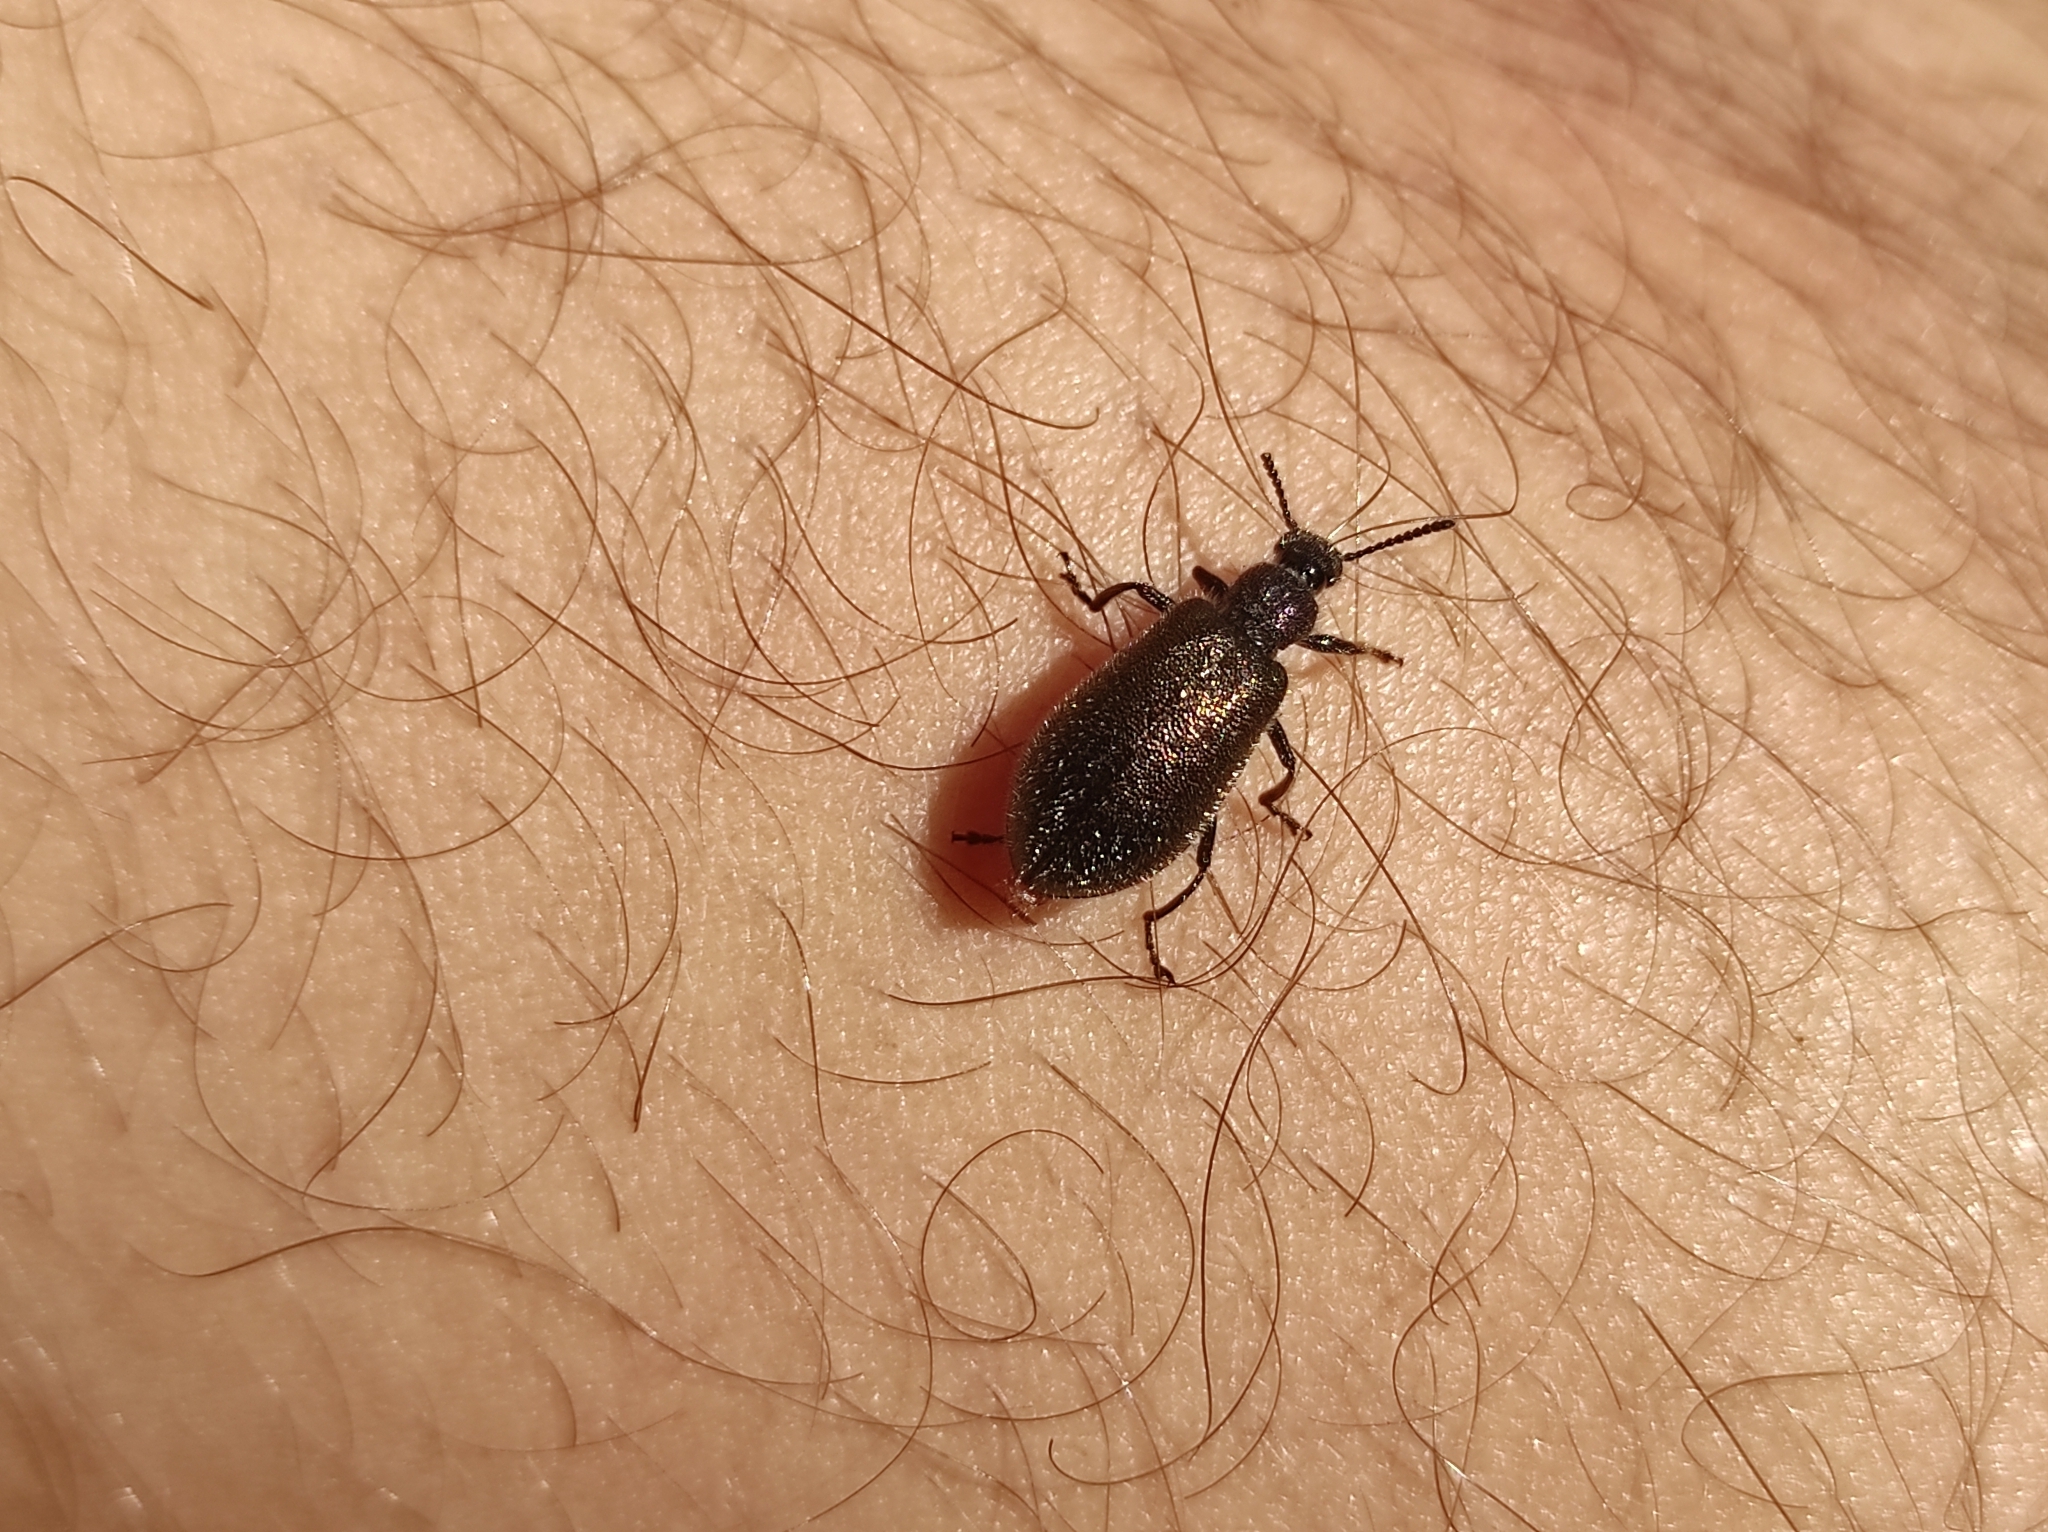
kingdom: Animalia
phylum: Arthropoda
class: Insecta
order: Coleoptera
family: Tenebrionidae
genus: Lagria
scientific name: Lagria villosa
